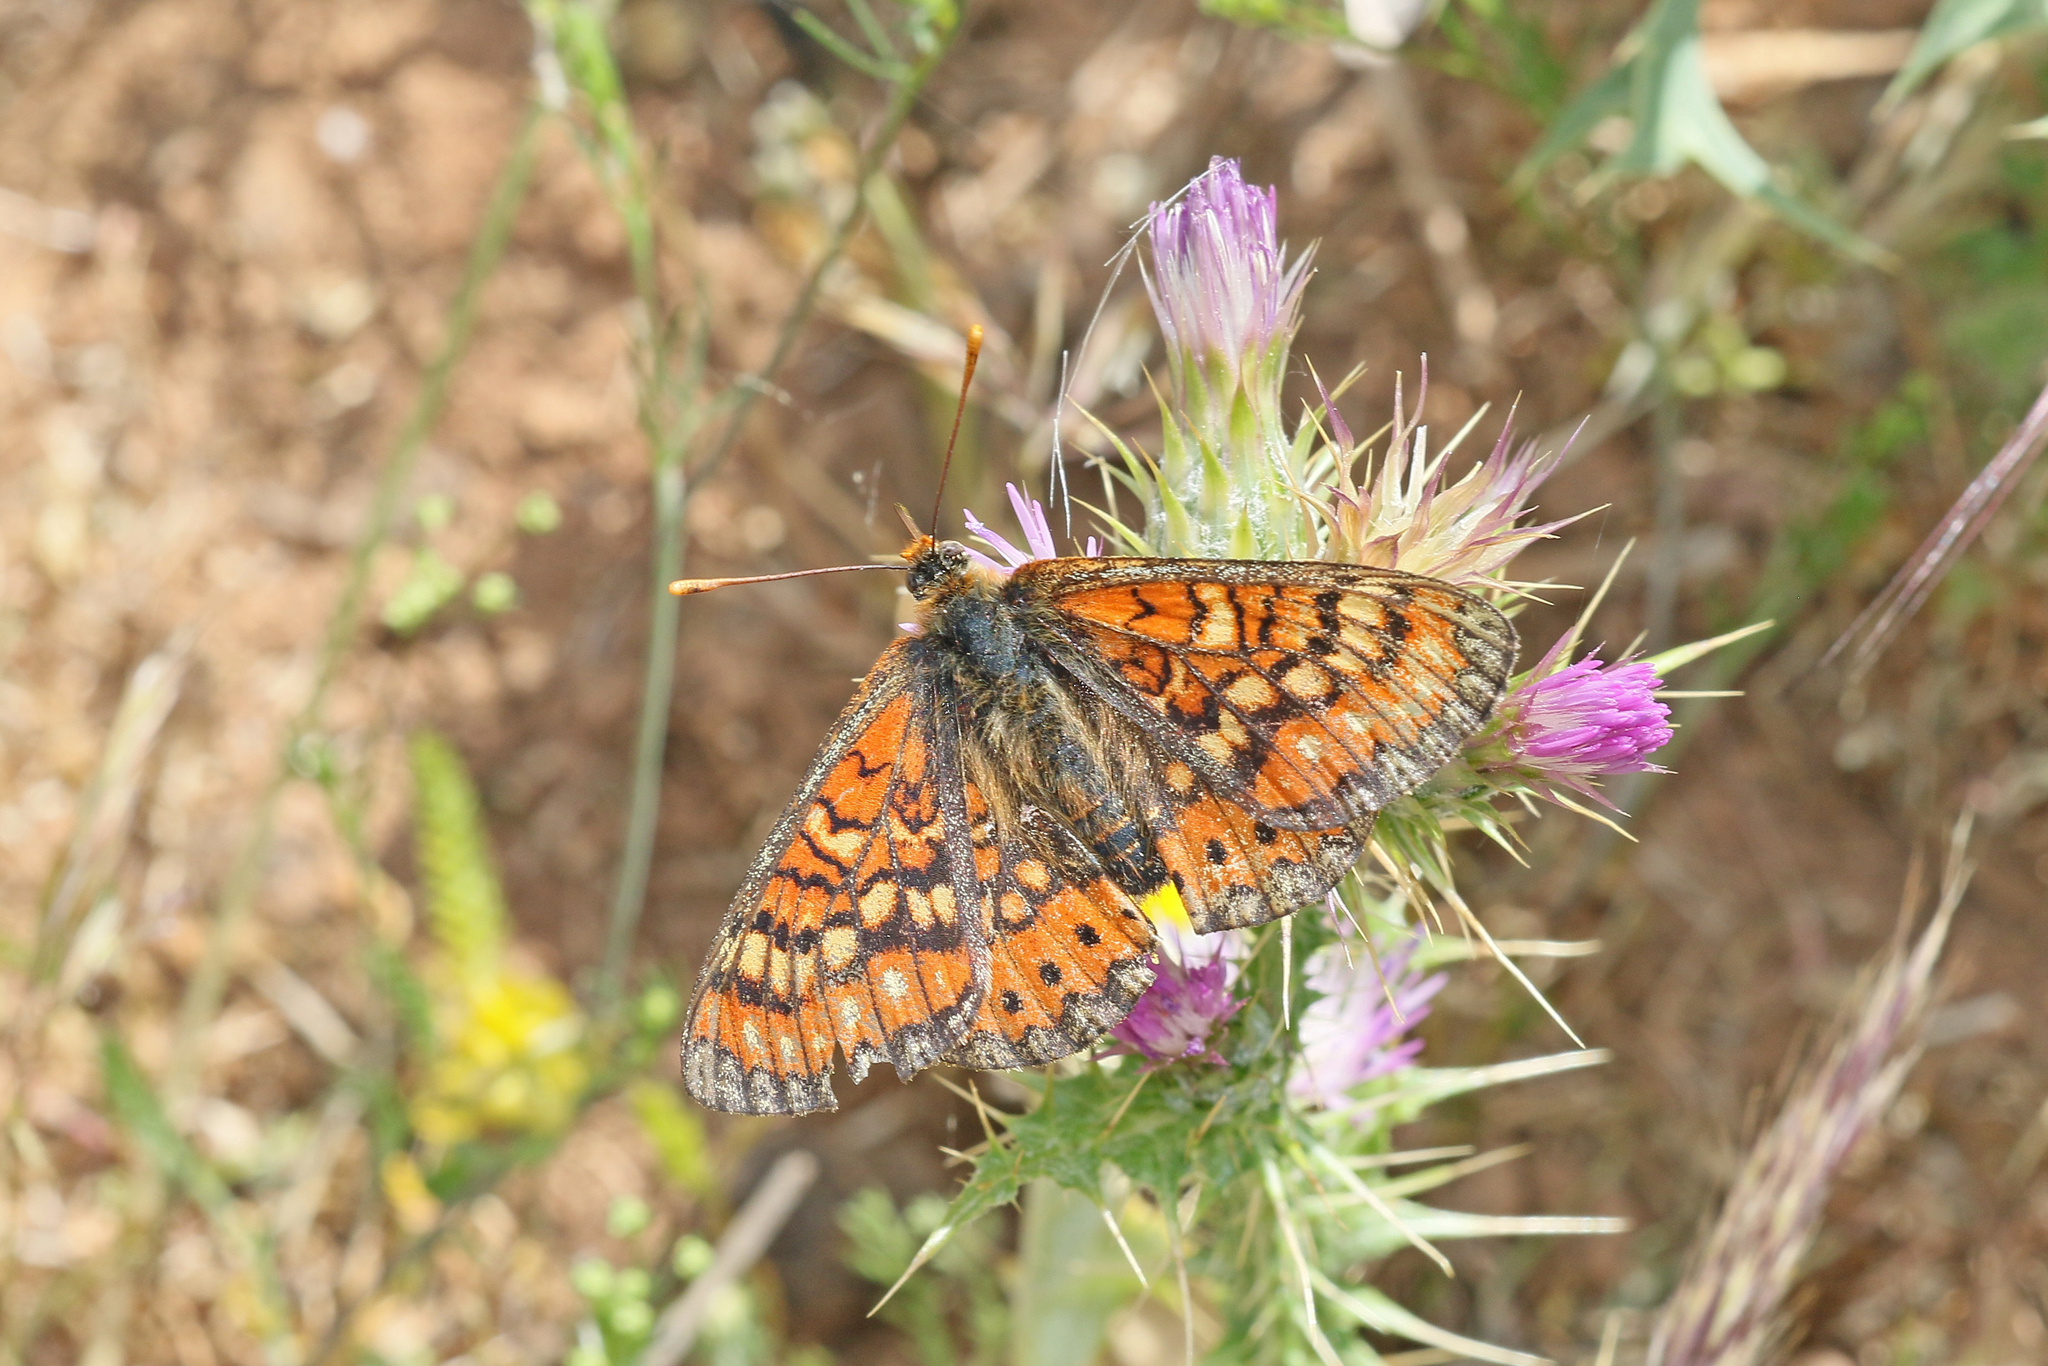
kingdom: Animalia
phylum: Arthropoda
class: Insecta
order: Lepidoptera
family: Nymphalidae
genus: Euphydryas
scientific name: Euphydryas desfontainii
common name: Spanish fritillary
